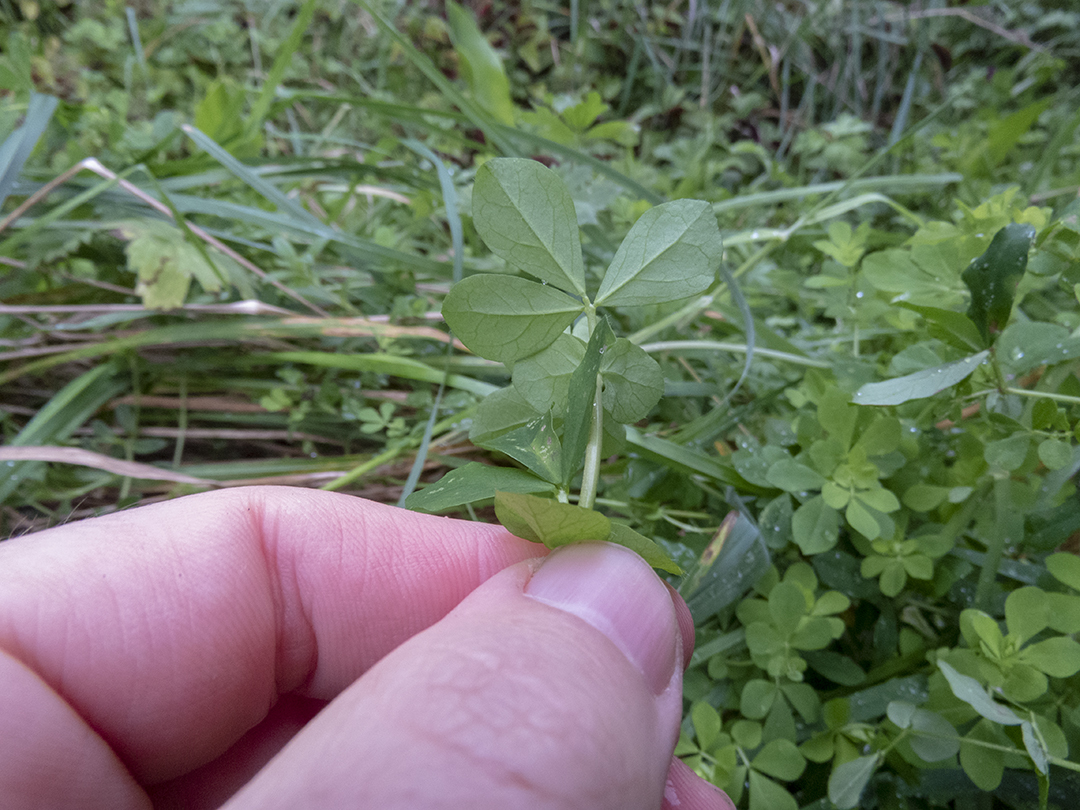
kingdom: Plantae
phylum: Tracheophyta
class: Magnoliopsida
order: Fabales
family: Fabaceae
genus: Lotus
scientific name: Lotus pedunculatus
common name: Greater birdsfoot-trefoil
